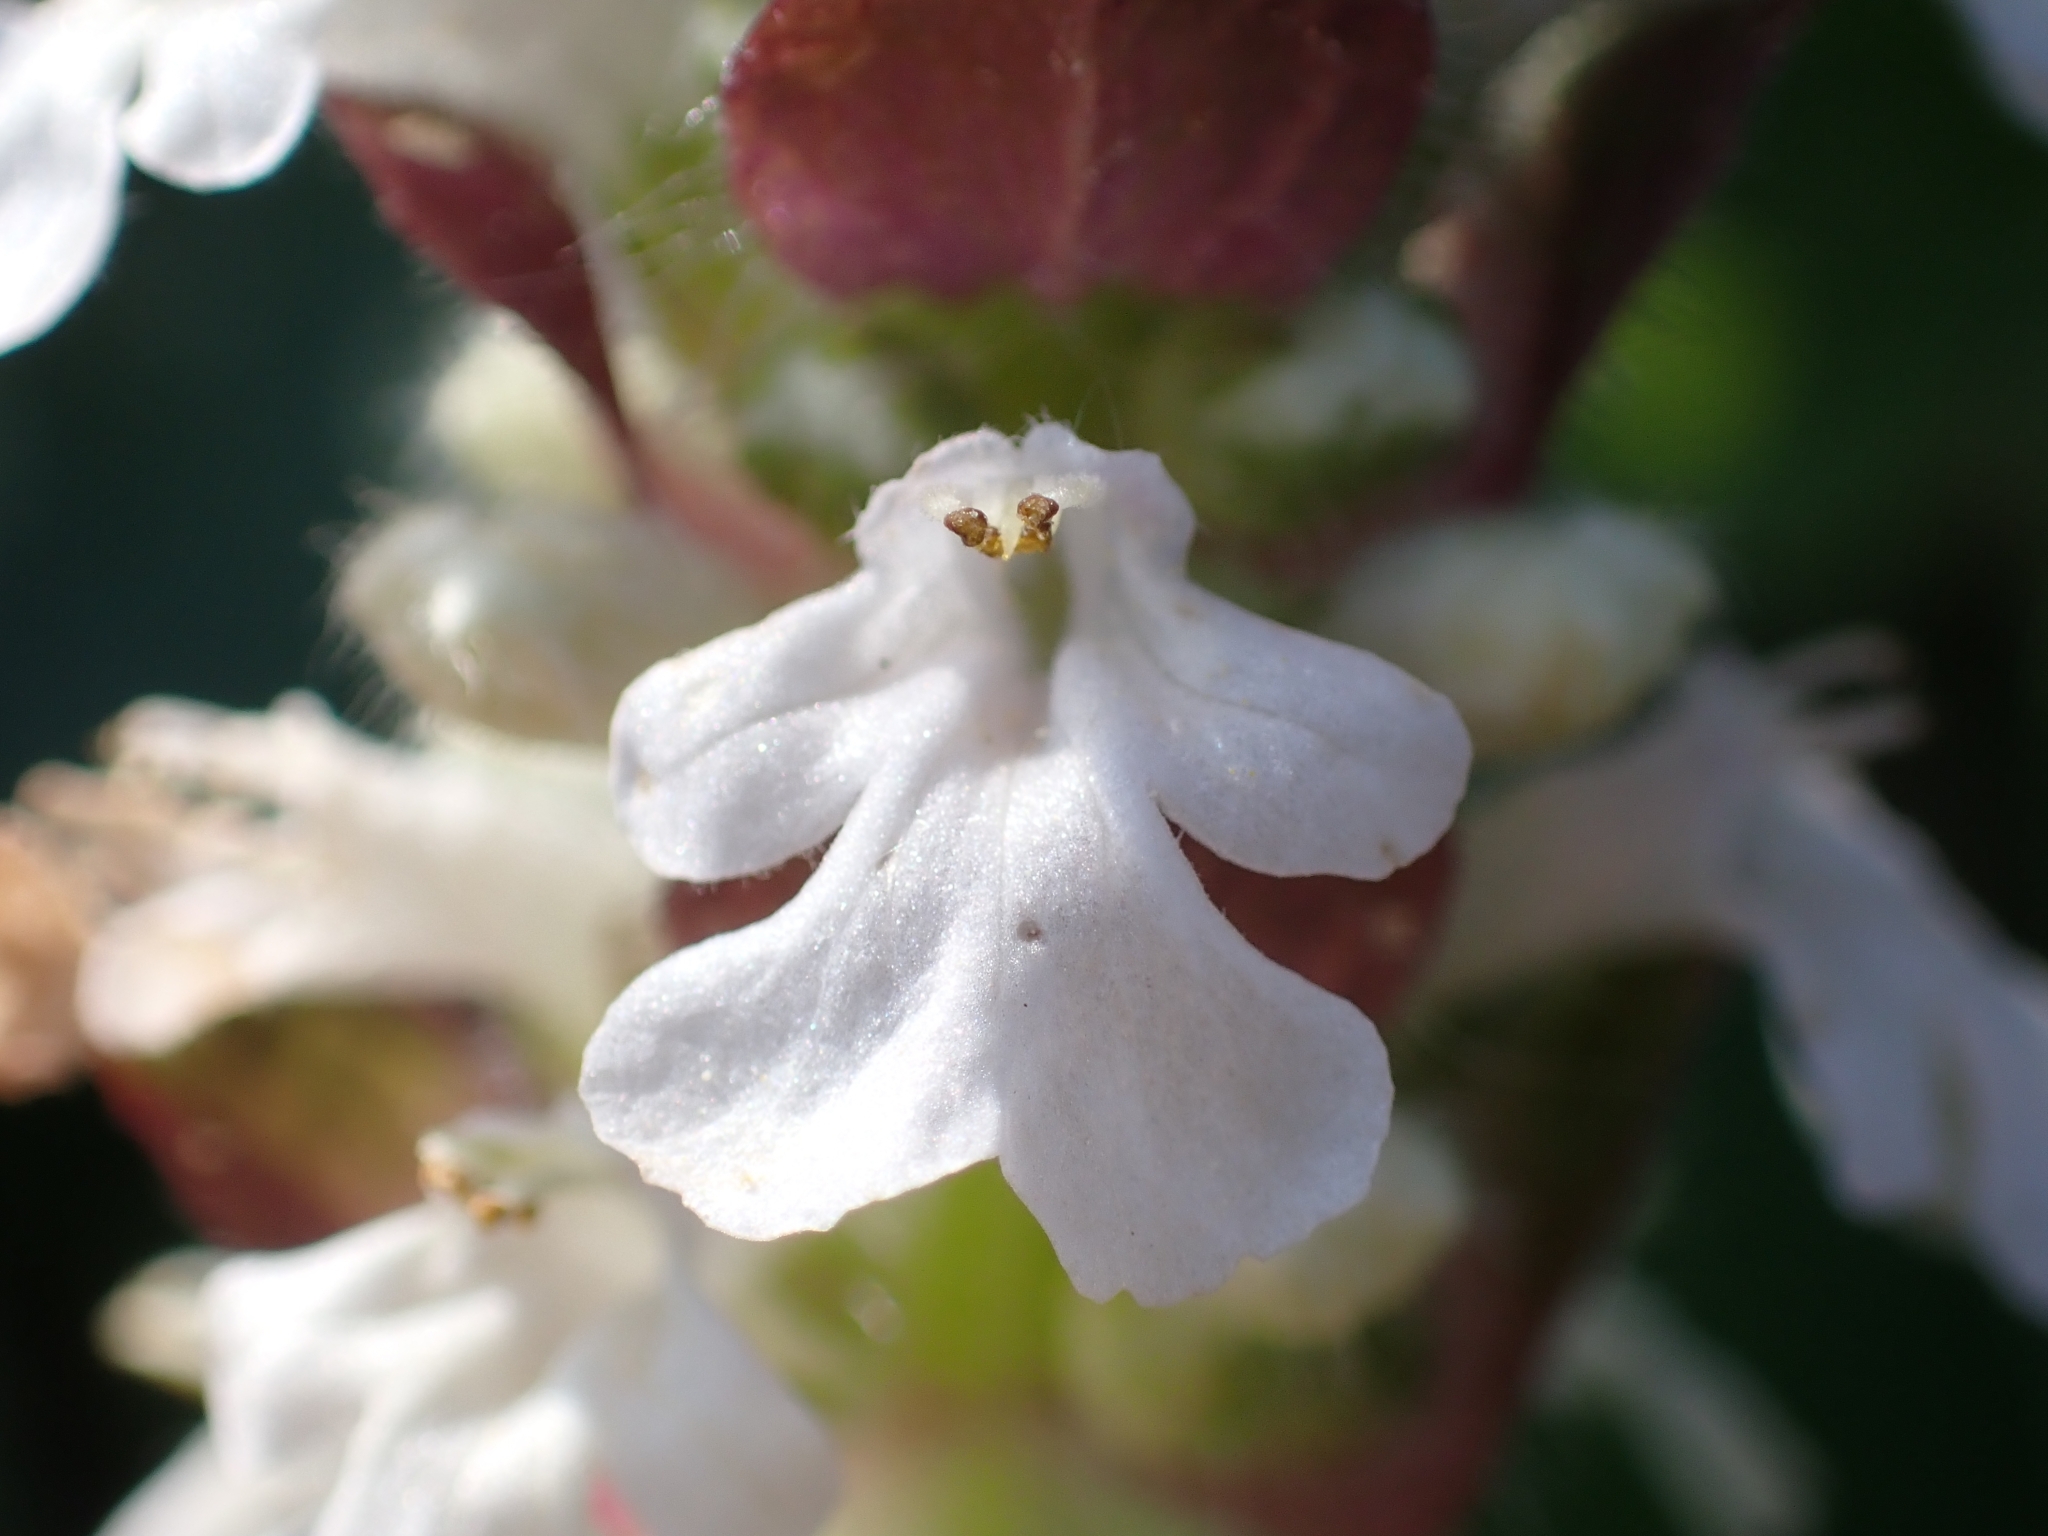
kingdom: Plantae
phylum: Tracheophyta
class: Magnoliopsida
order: Lamiales
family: Lamiaceae
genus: Ajuga
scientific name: Ajuga reptans
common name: Bugle
